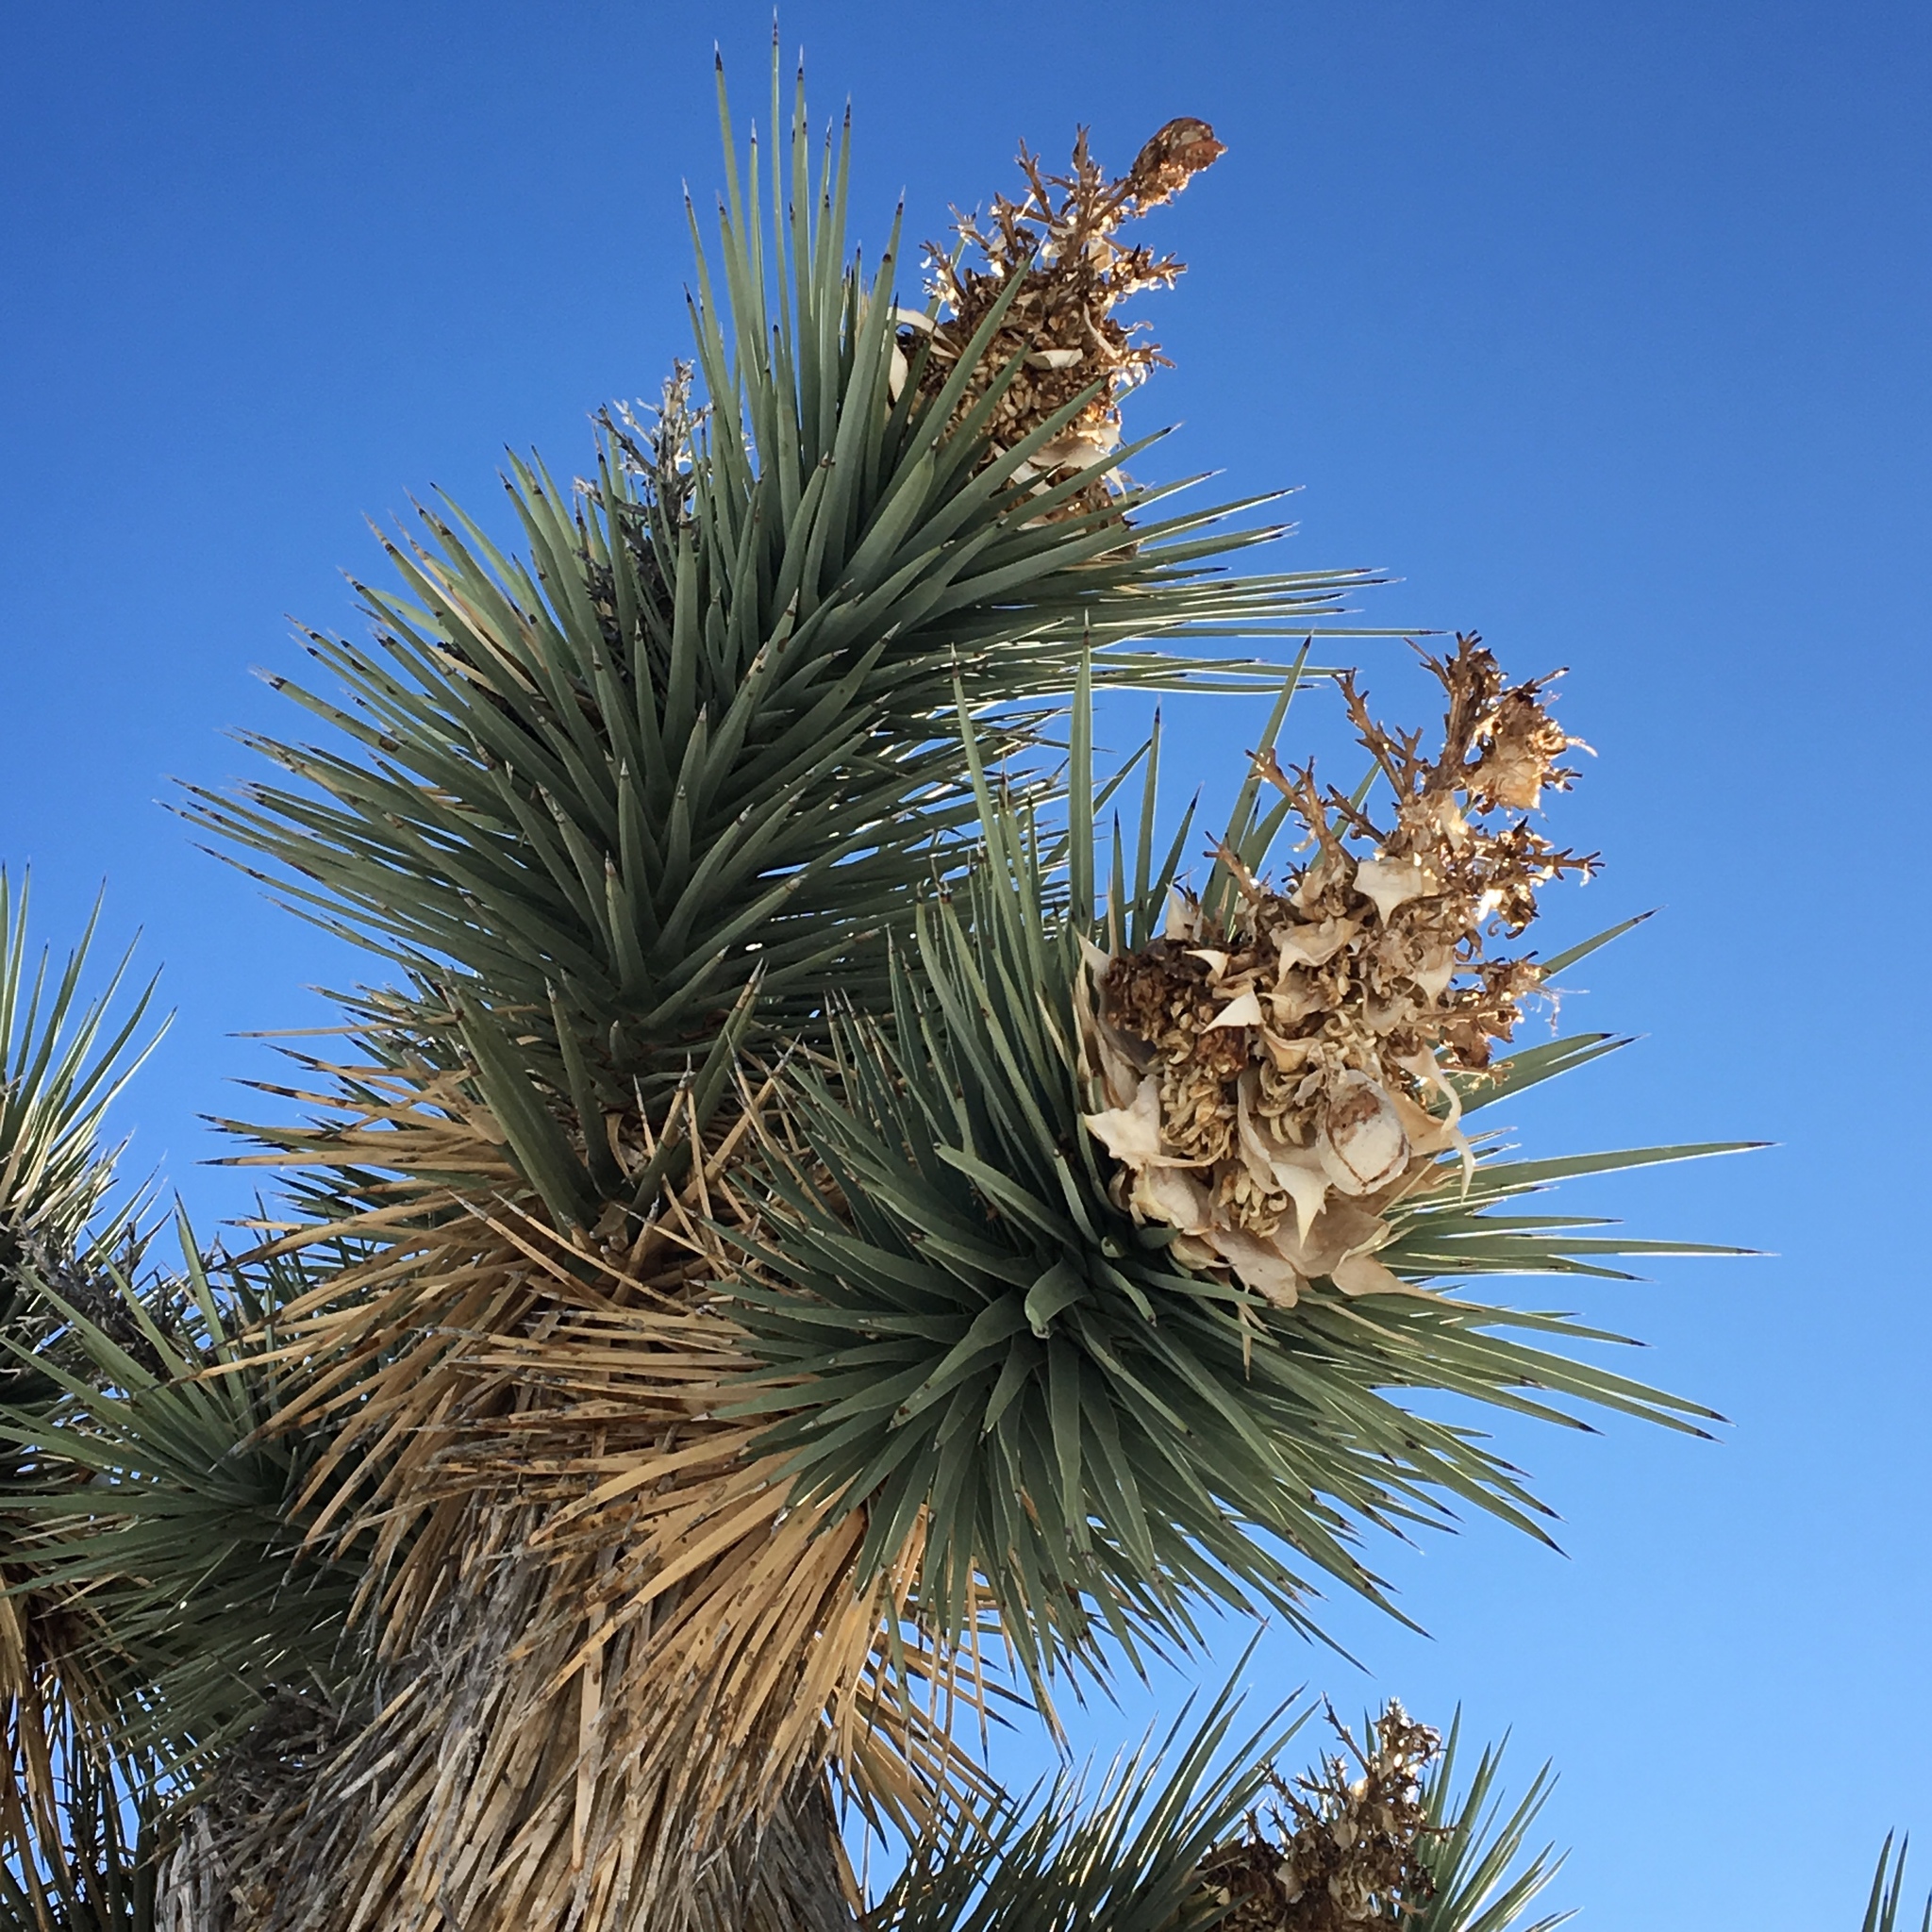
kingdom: Plantae
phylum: Tracheophyta
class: Liliopsida
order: Asparagales
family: Asparagaceae
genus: Yucca
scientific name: Yucca brevifolia
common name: Joshua tree
